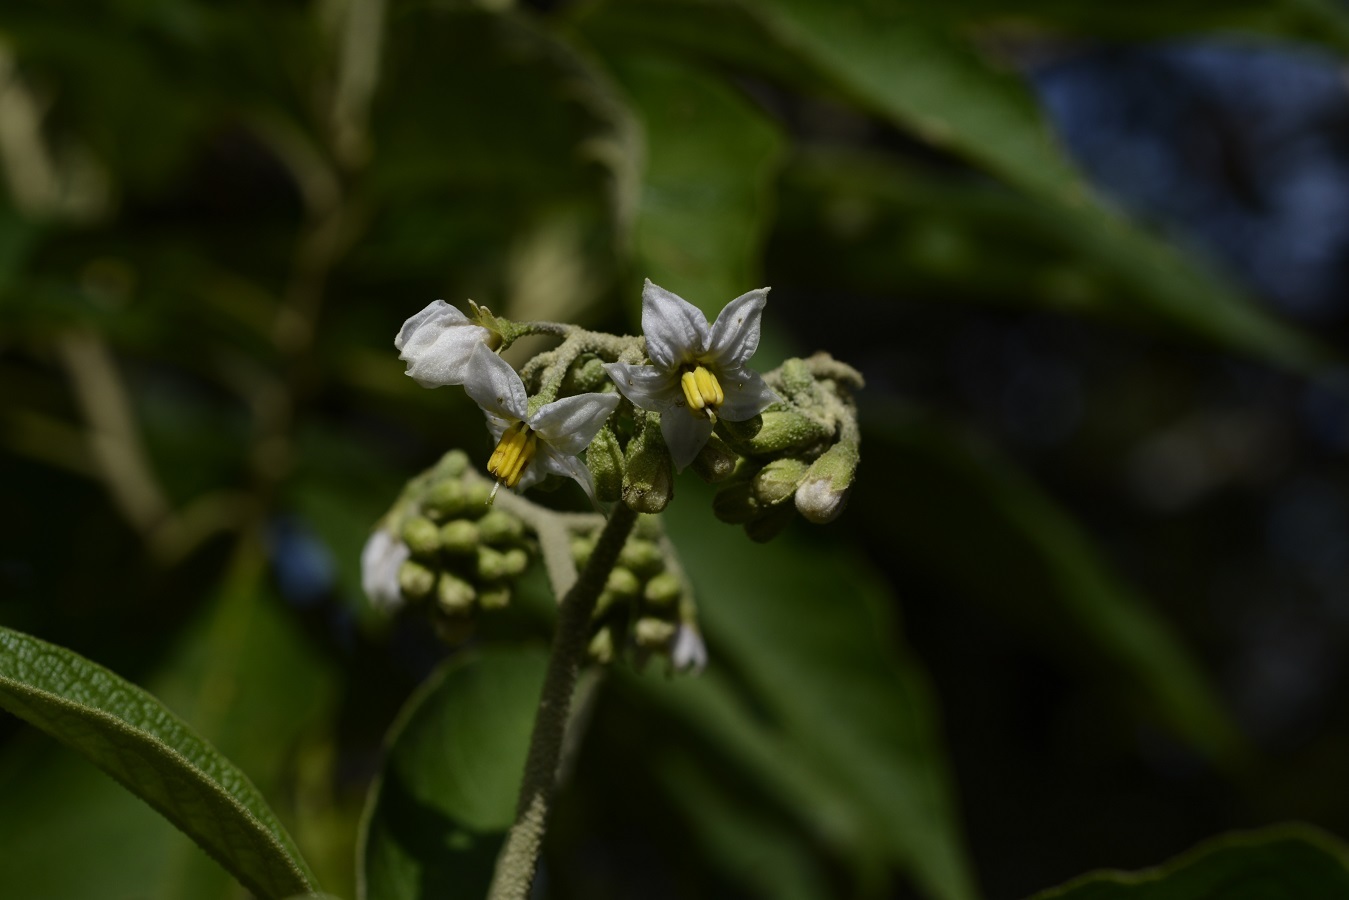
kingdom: Plantae
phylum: Tracheophyta
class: Magnoliopsida
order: Solanales
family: Solanaceae
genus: Solanum
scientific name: Solanum chiapasense
